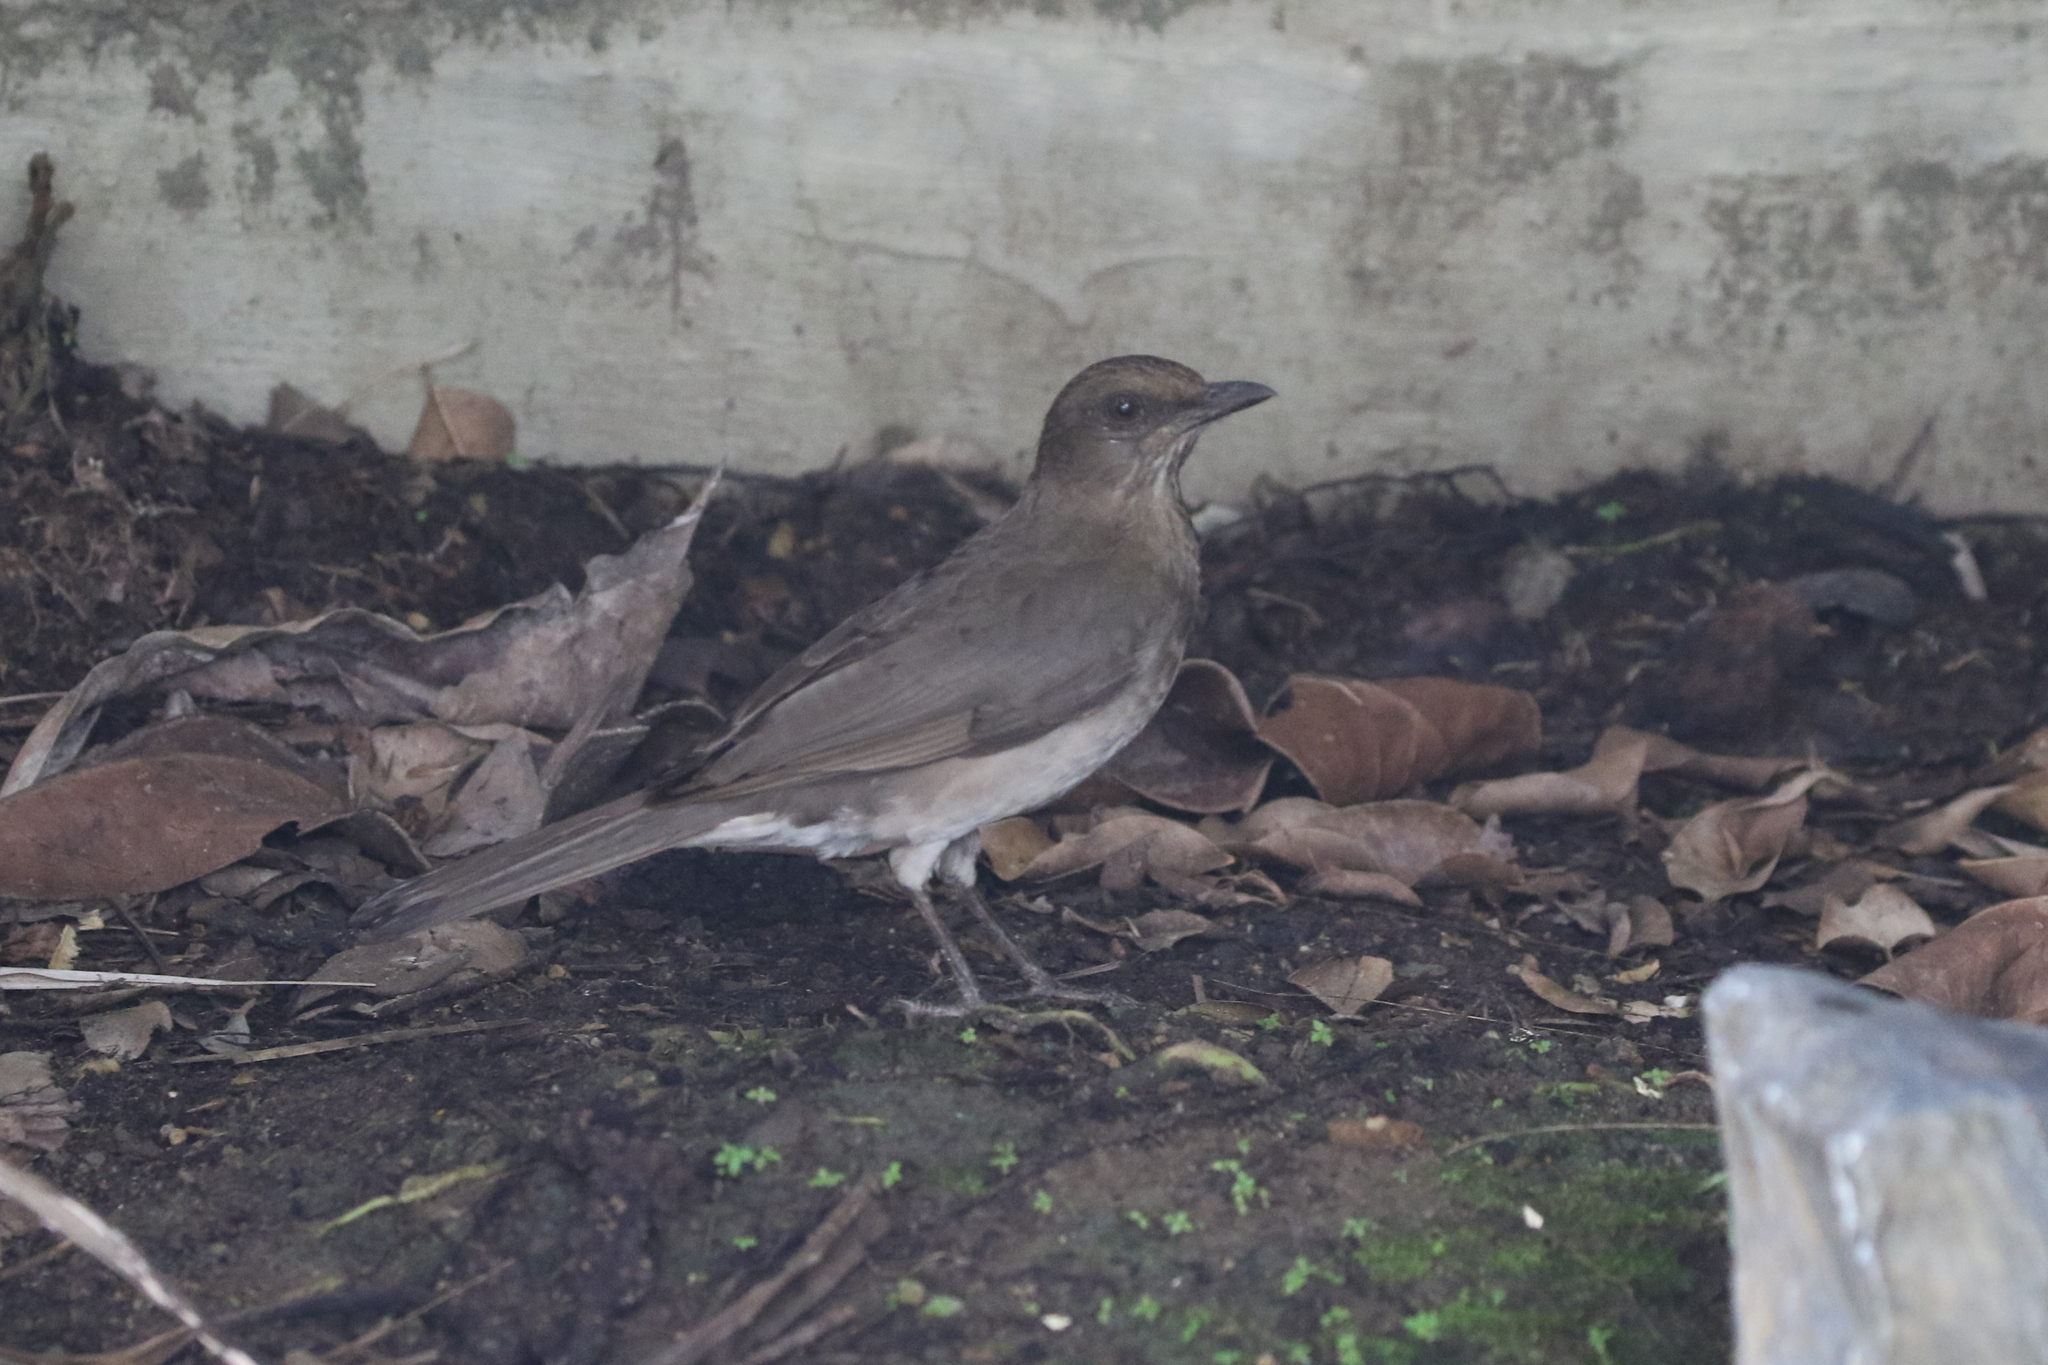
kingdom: Animalia
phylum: Chordata
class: Aves
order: Passeriformes
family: Turdidae
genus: Turdus
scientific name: Turdus ignobilis
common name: Black-billed thrush
